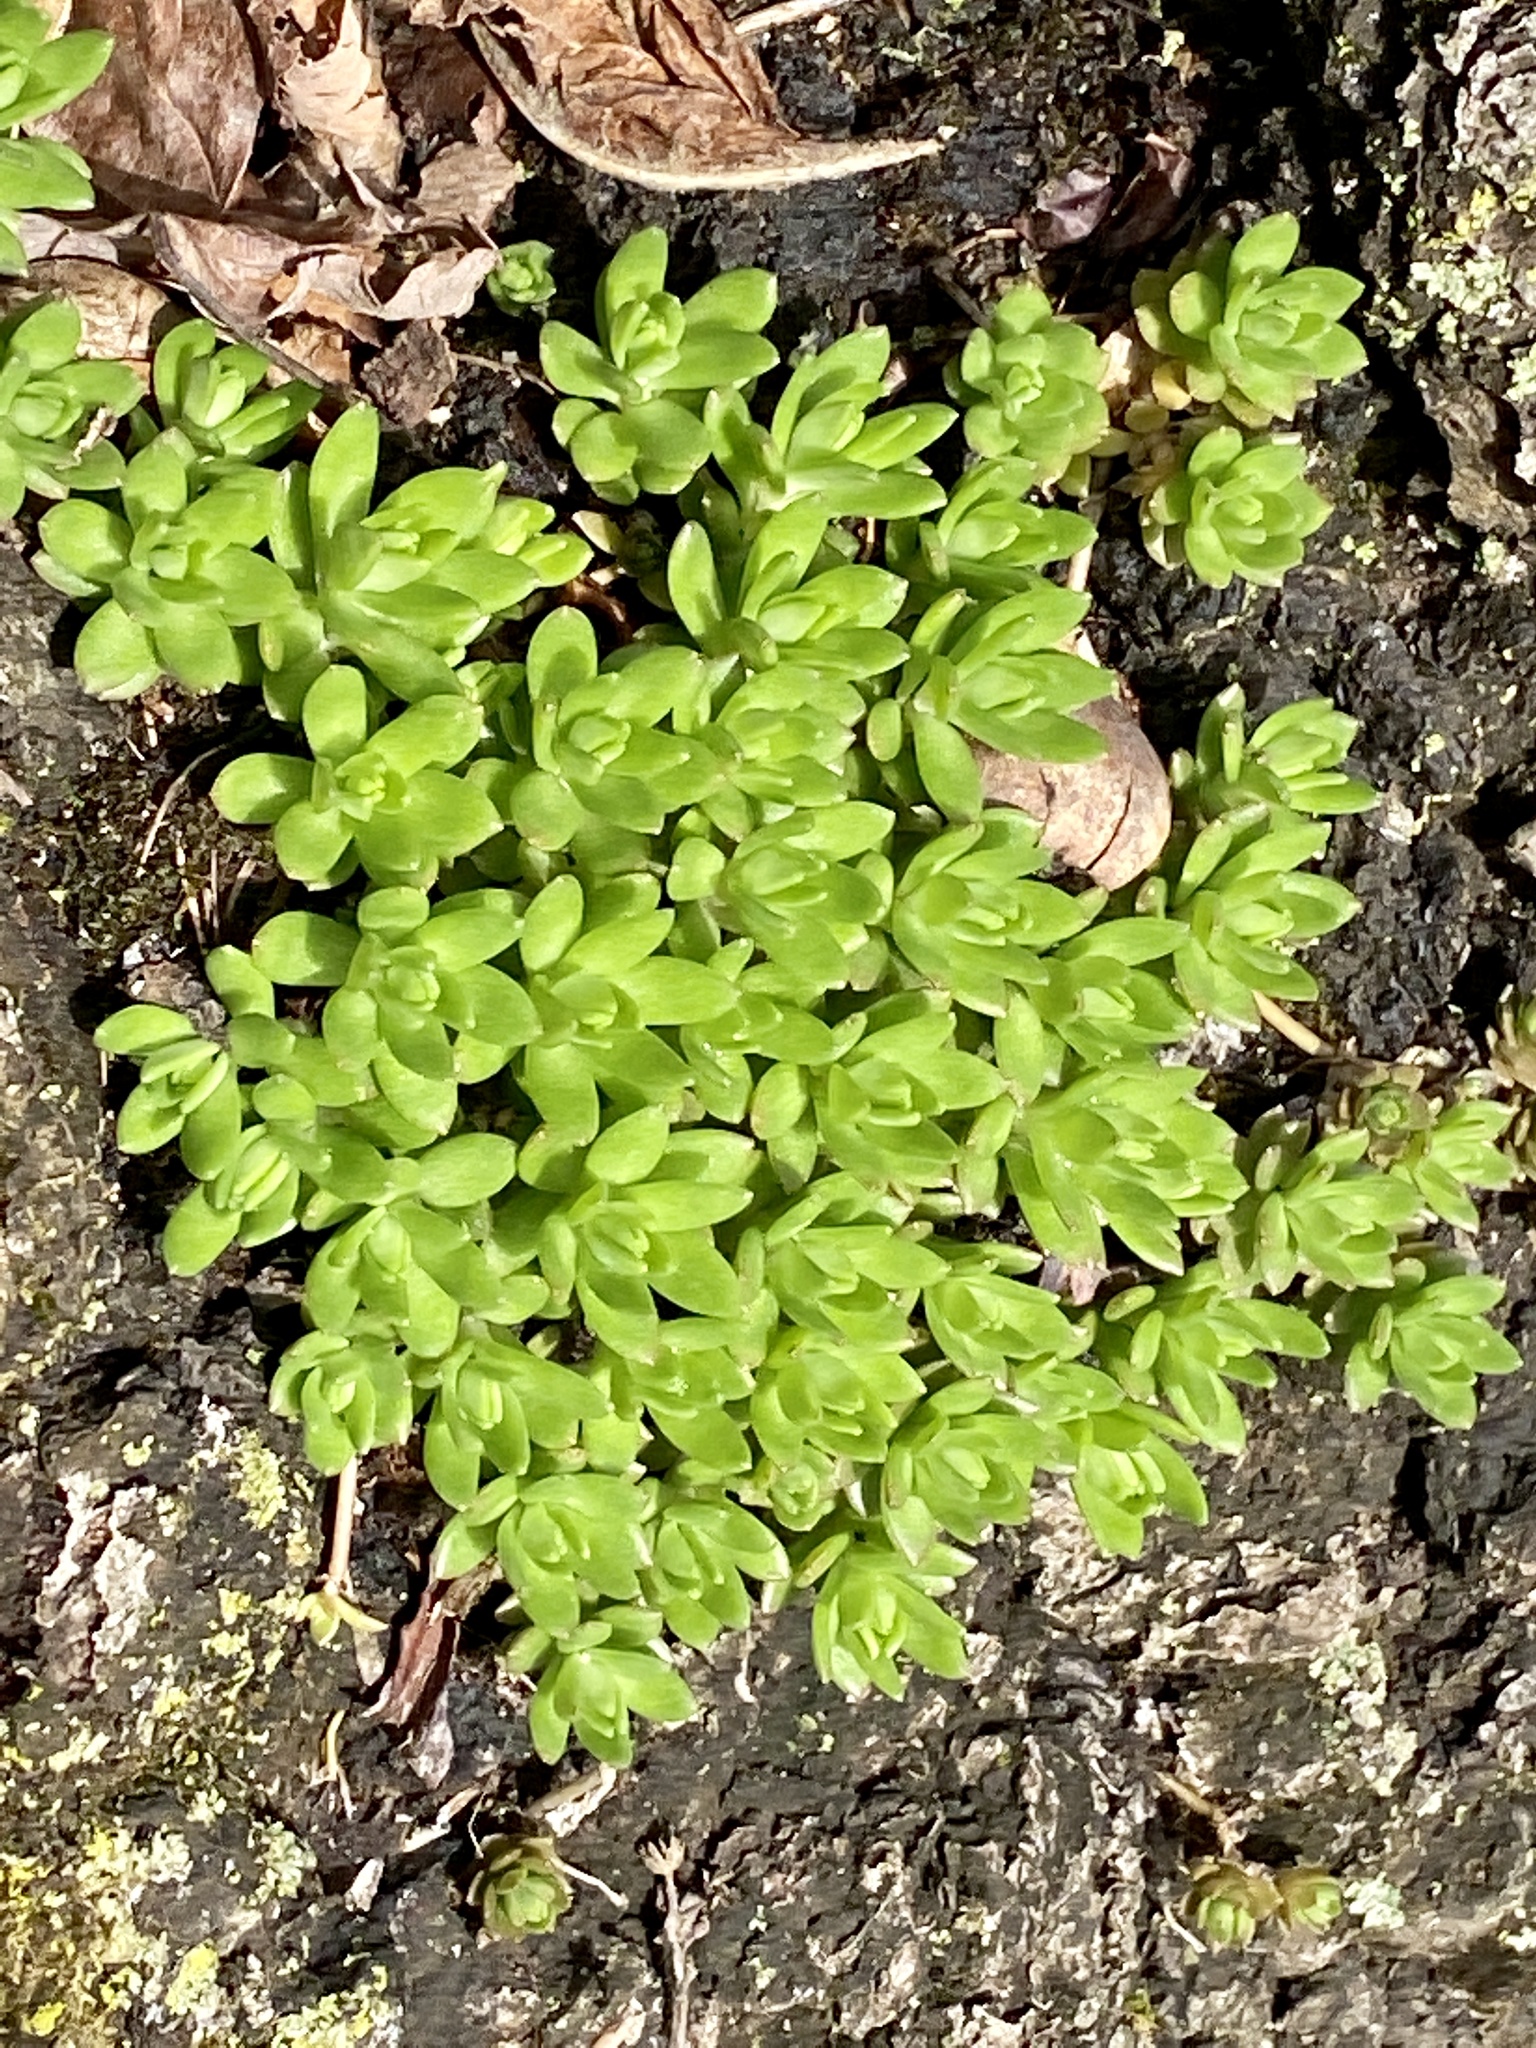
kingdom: Plantae
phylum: Tracheophyta
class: Magnoliopsida
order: Saxifragales
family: Crassulaceae
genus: Sedum
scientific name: Sedum sarmentosum
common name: Stringy stonecrop
